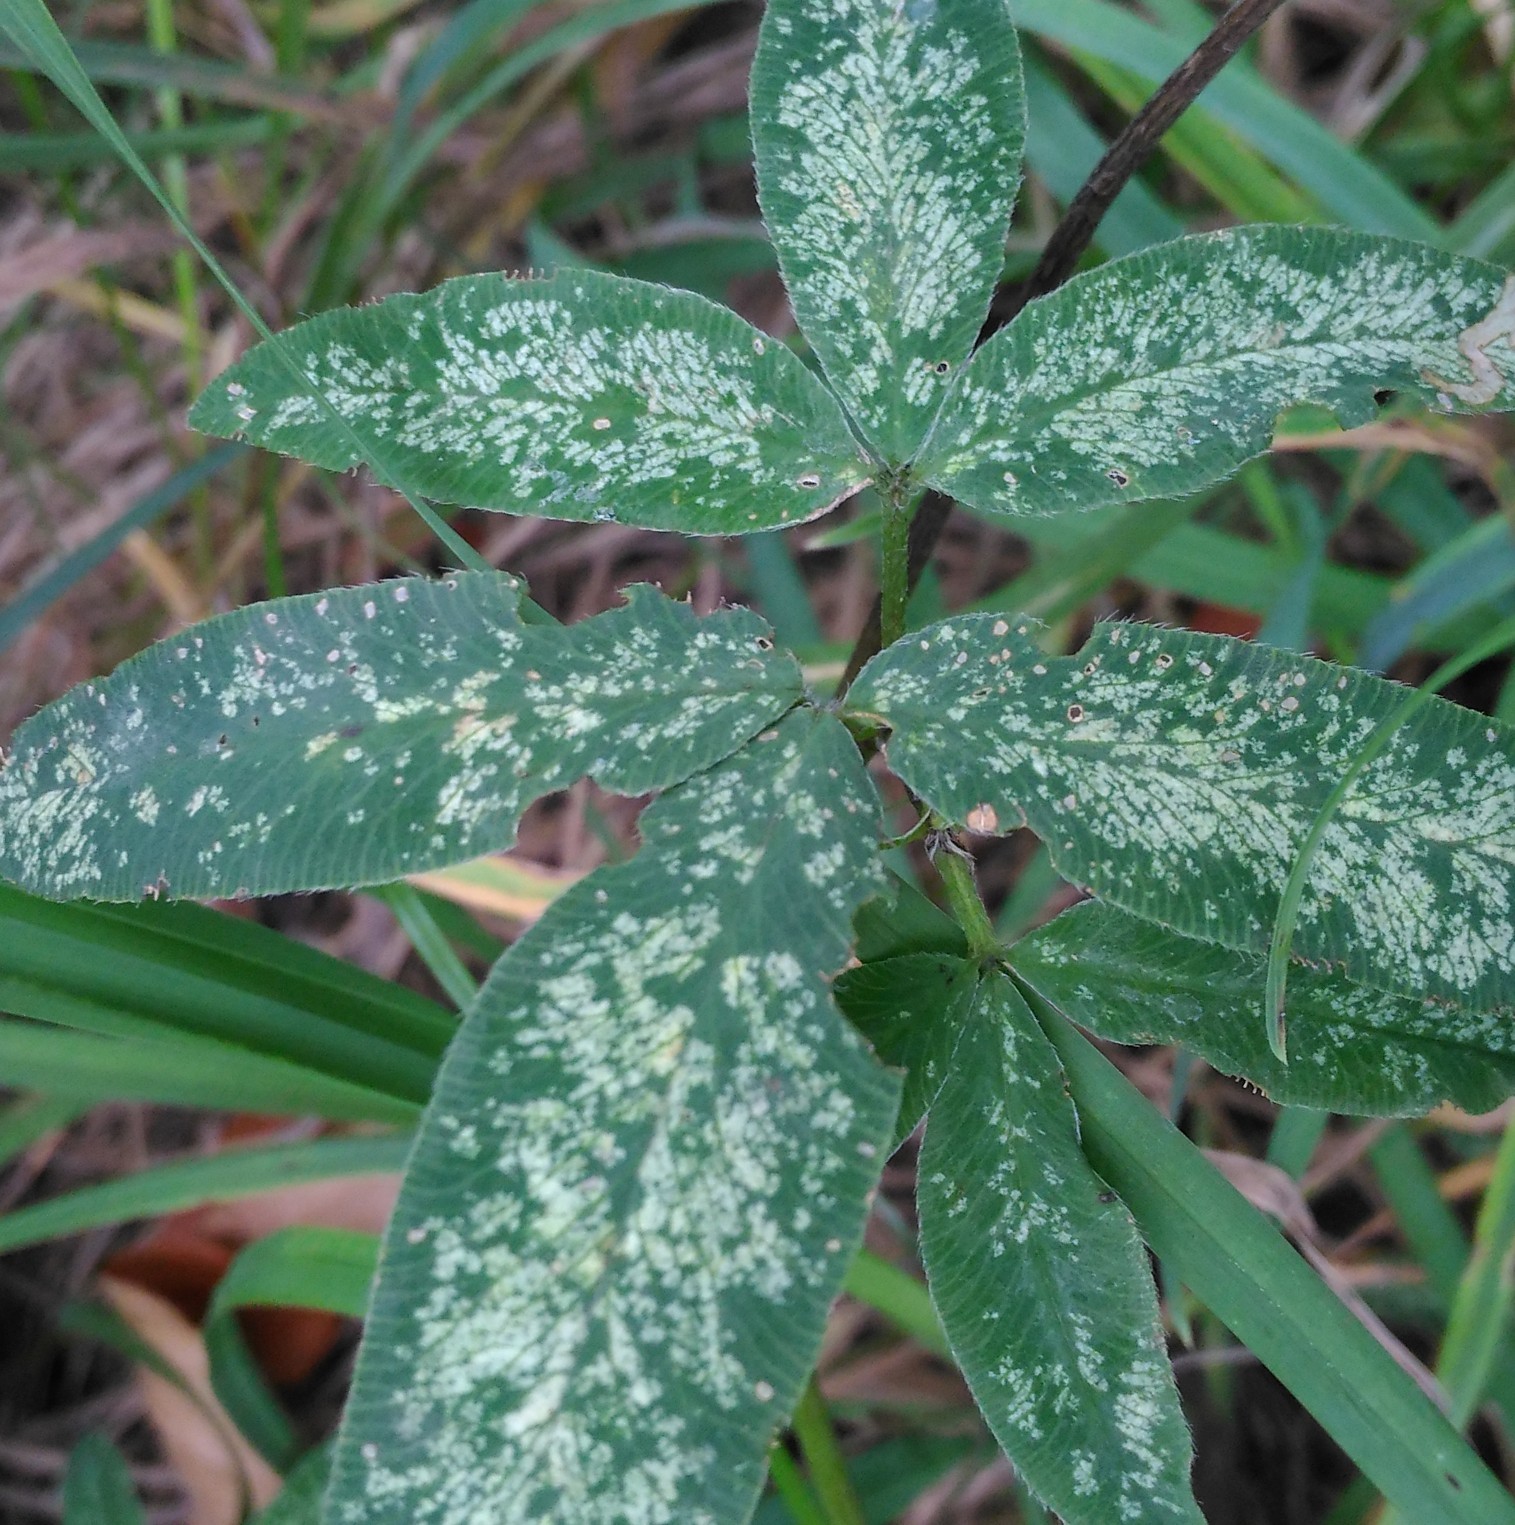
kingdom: Plantae
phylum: Tracheophyta
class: Magnoliopsida
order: Fabales
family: Fabaceae
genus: Trifolium
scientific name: Trifolium medium
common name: Zigzag clover
